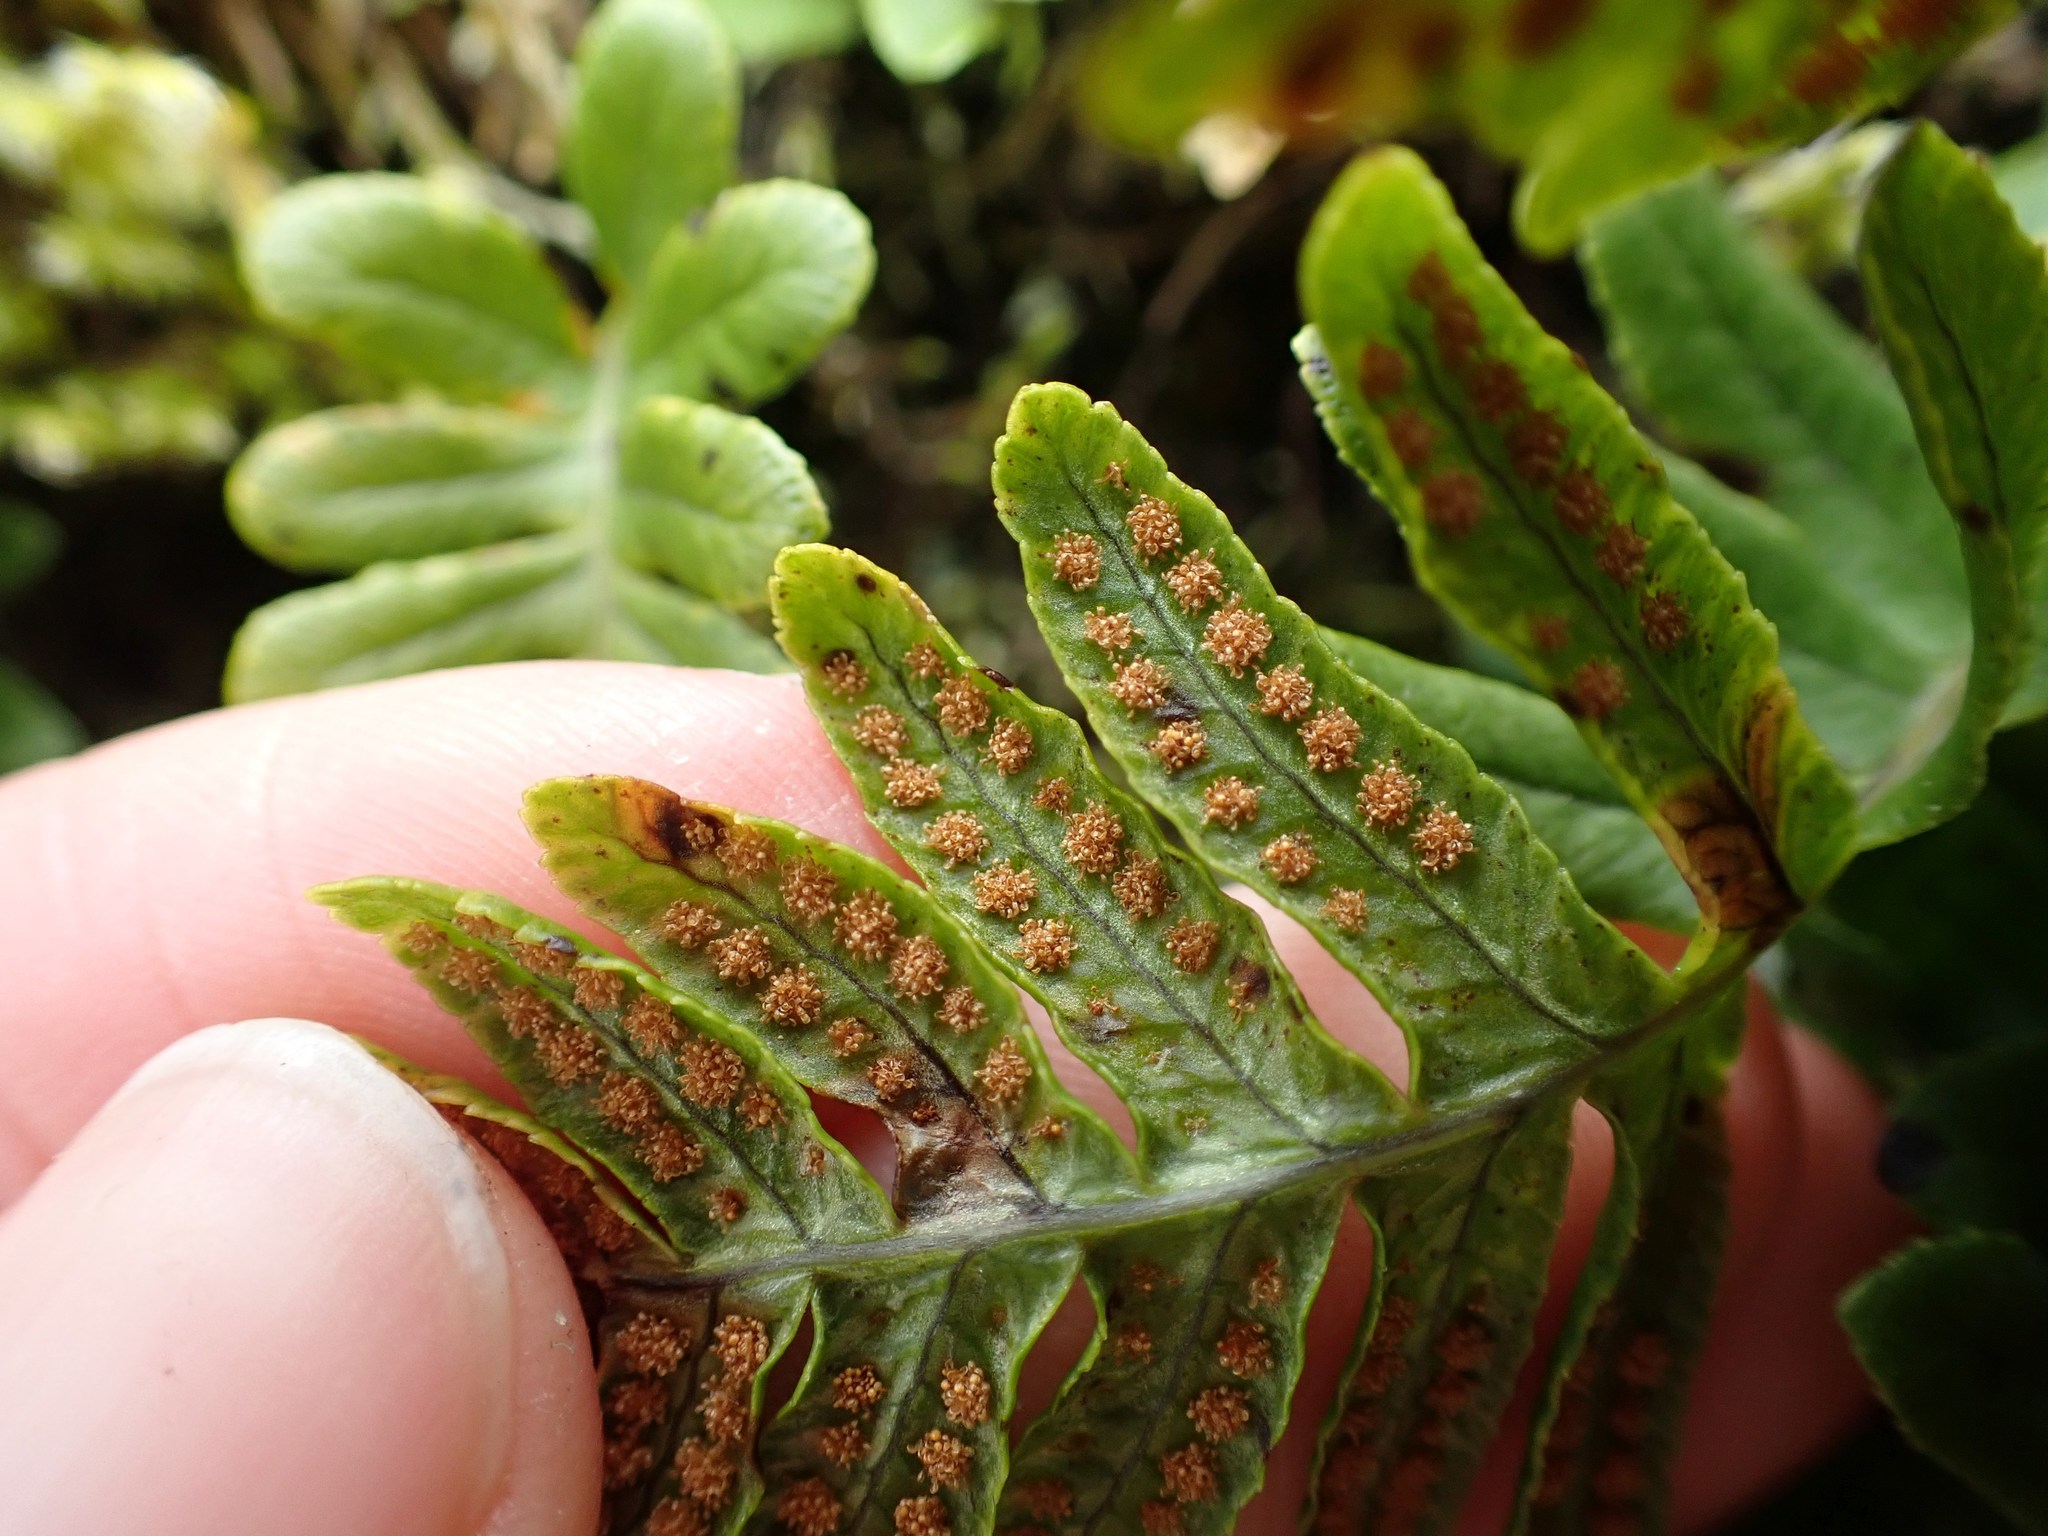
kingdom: Plantae
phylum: Tracheophyta
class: Polypodiopsida
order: Polypodiales
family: Polypodiaceae
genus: Polypodium
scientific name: Polypodium glycyrrhiza
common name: Licorice fern
